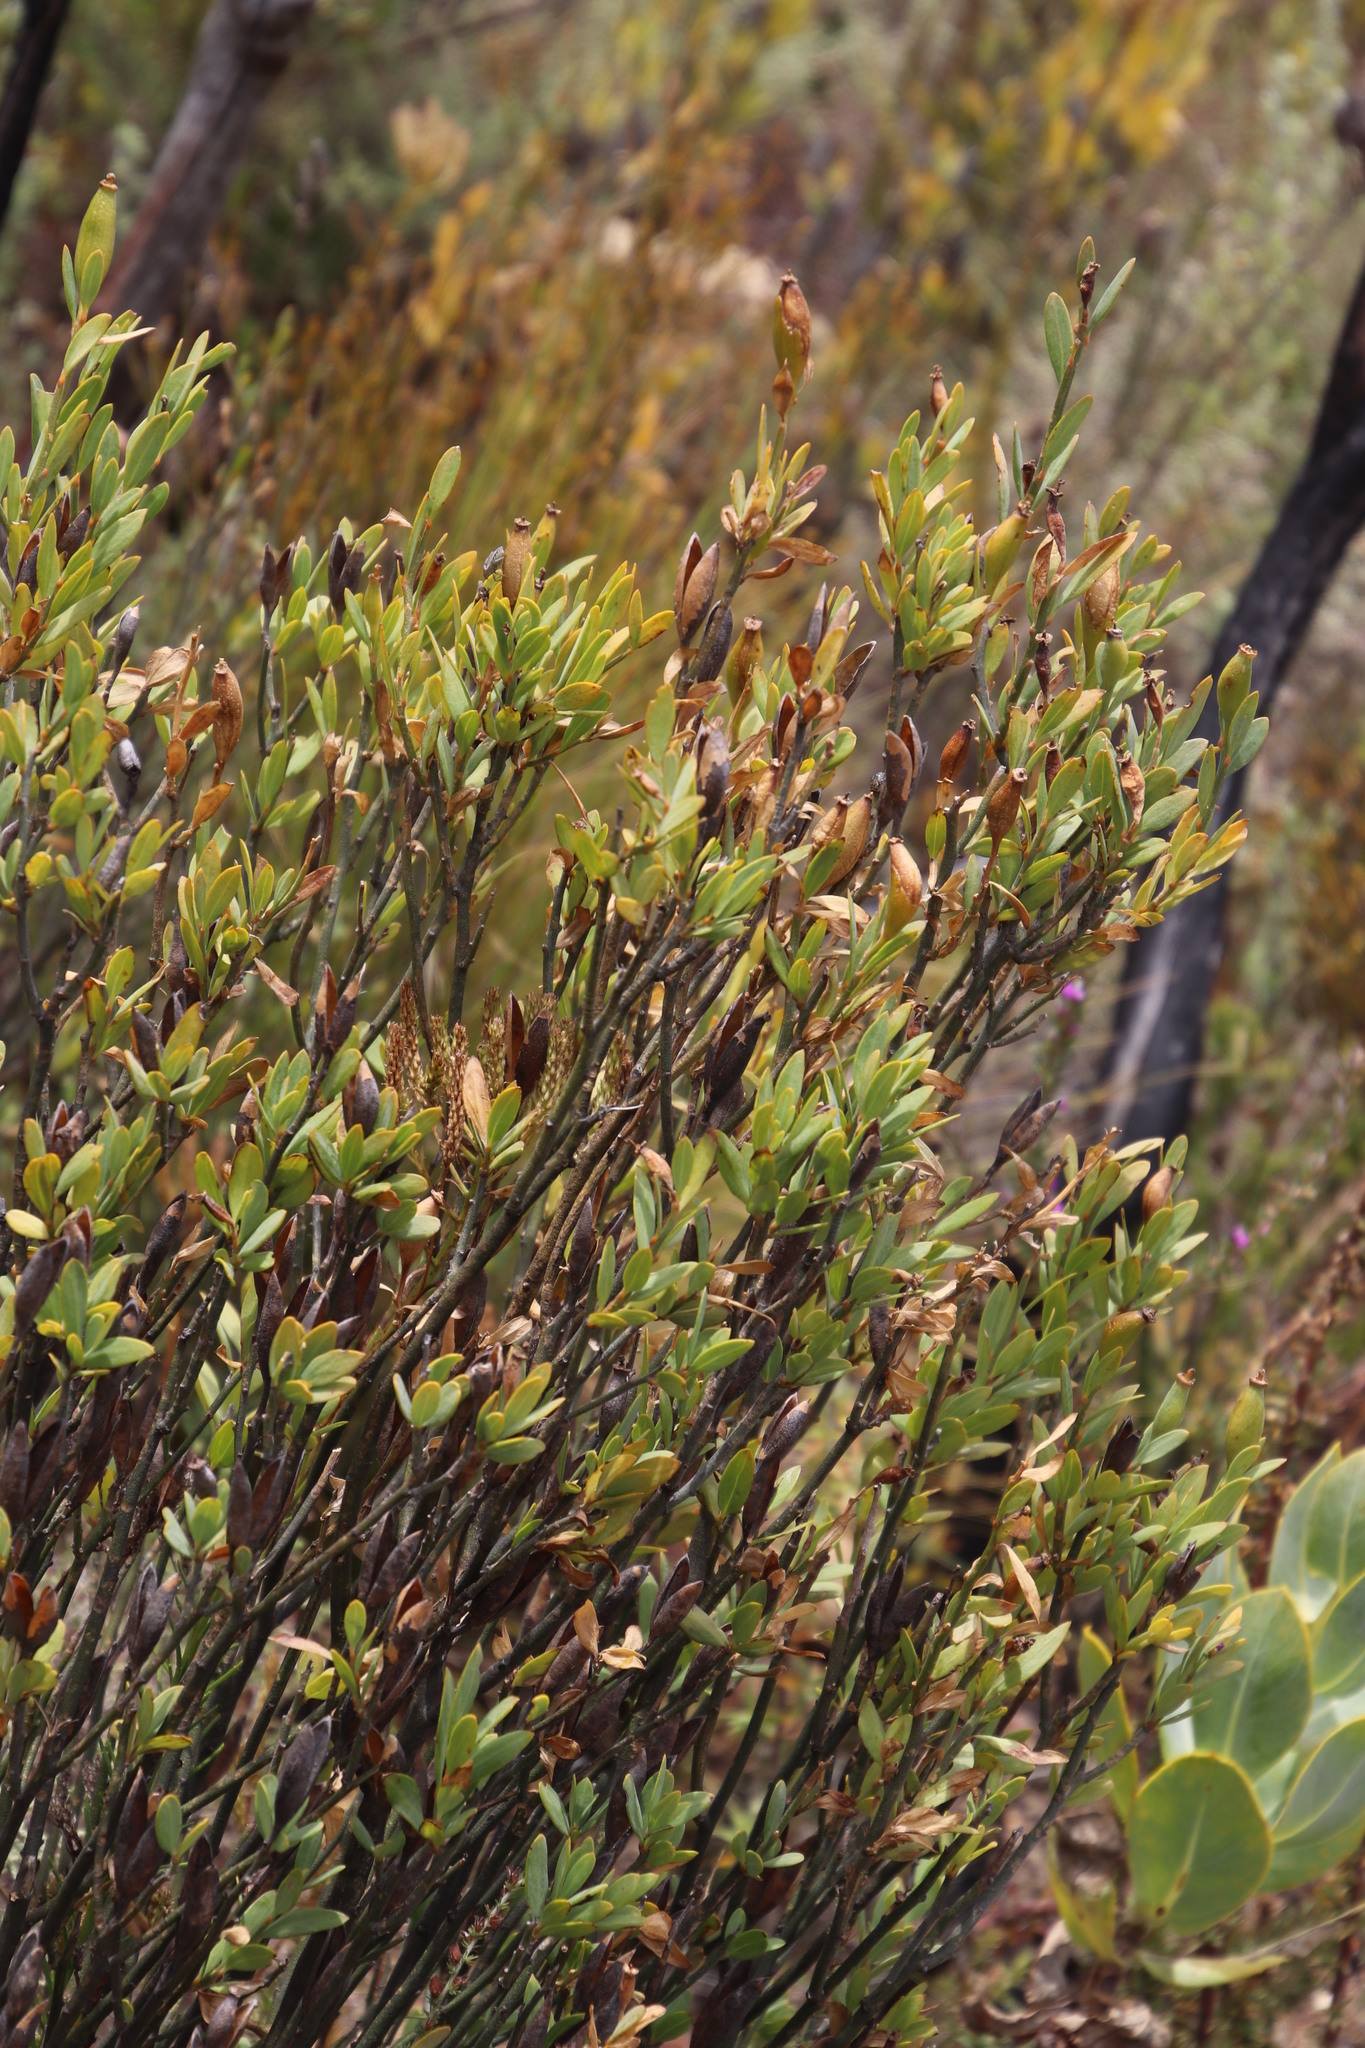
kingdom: Plantae
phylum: Tracheophyta
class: Magnoliopsida
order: Solanales
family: Montiniaceae
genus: Montinia
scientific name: Montinia caryophyllacea
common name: Wild clove-bush
